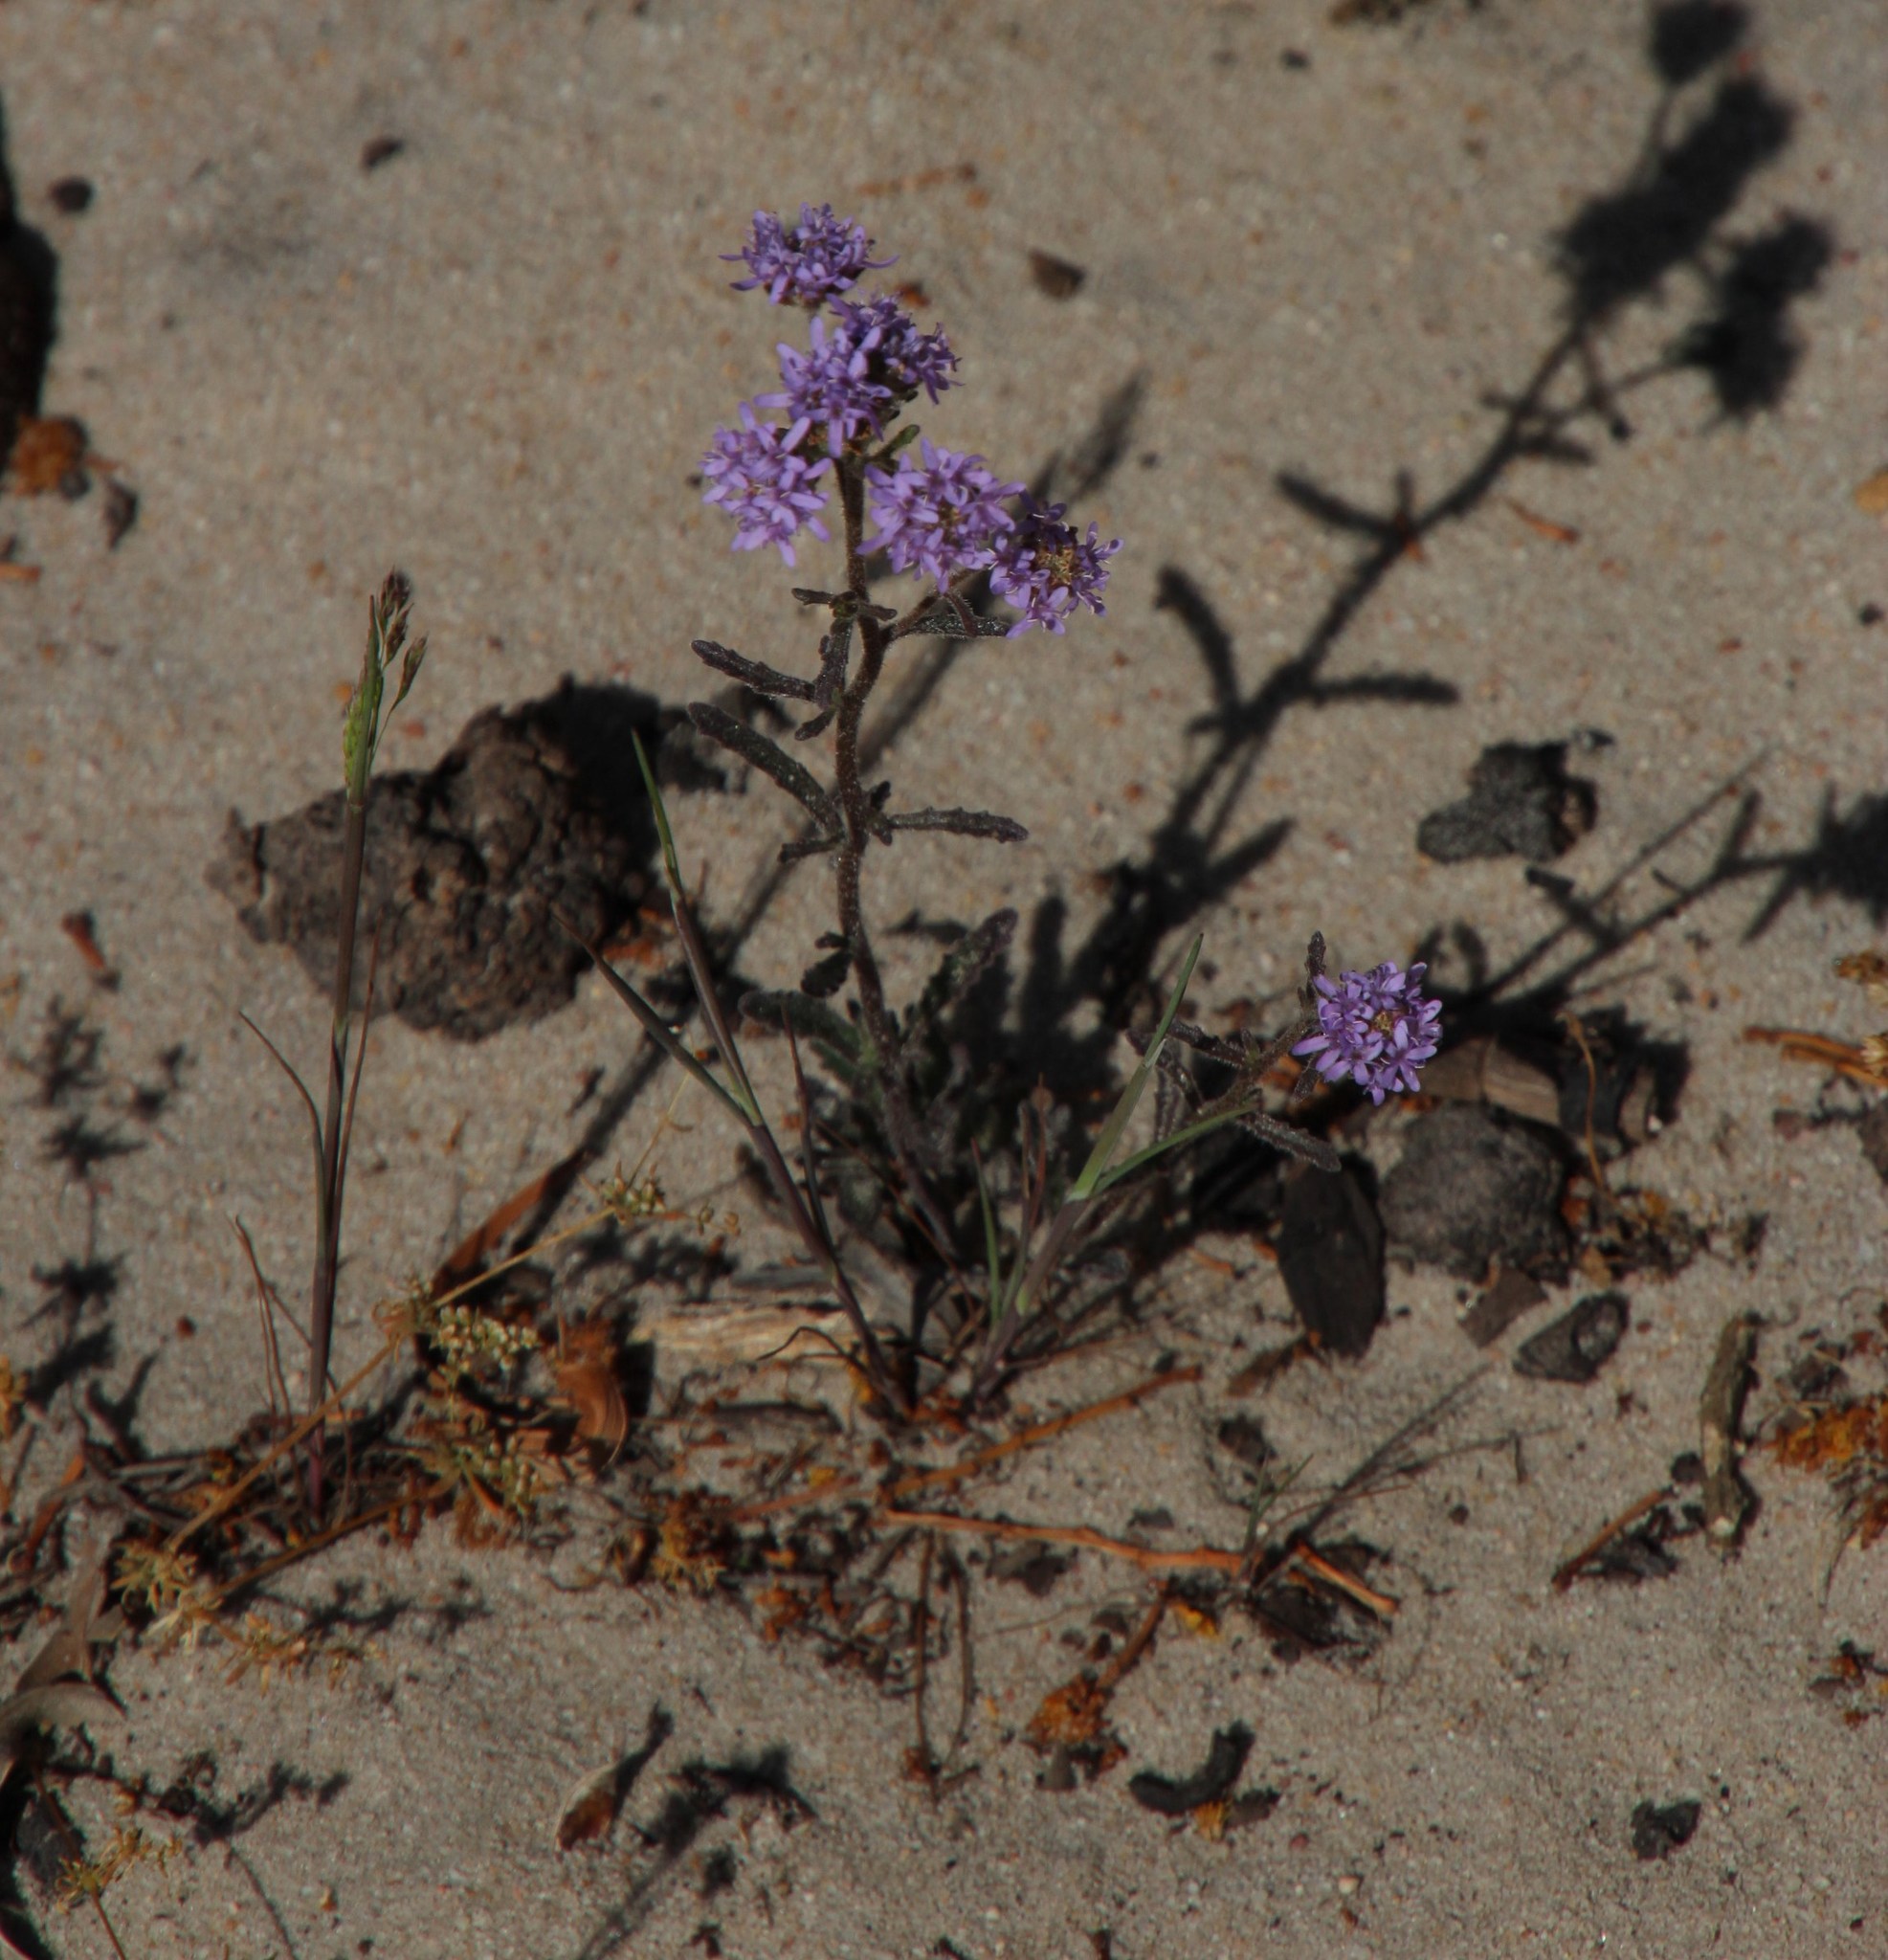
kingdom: Plantae
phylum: Tracheophyta
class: Magnoliopsida
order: Lamiales
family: Scrophulariaceae
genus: Phyllopodium
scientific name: Phyllopodium phyllopodioides
